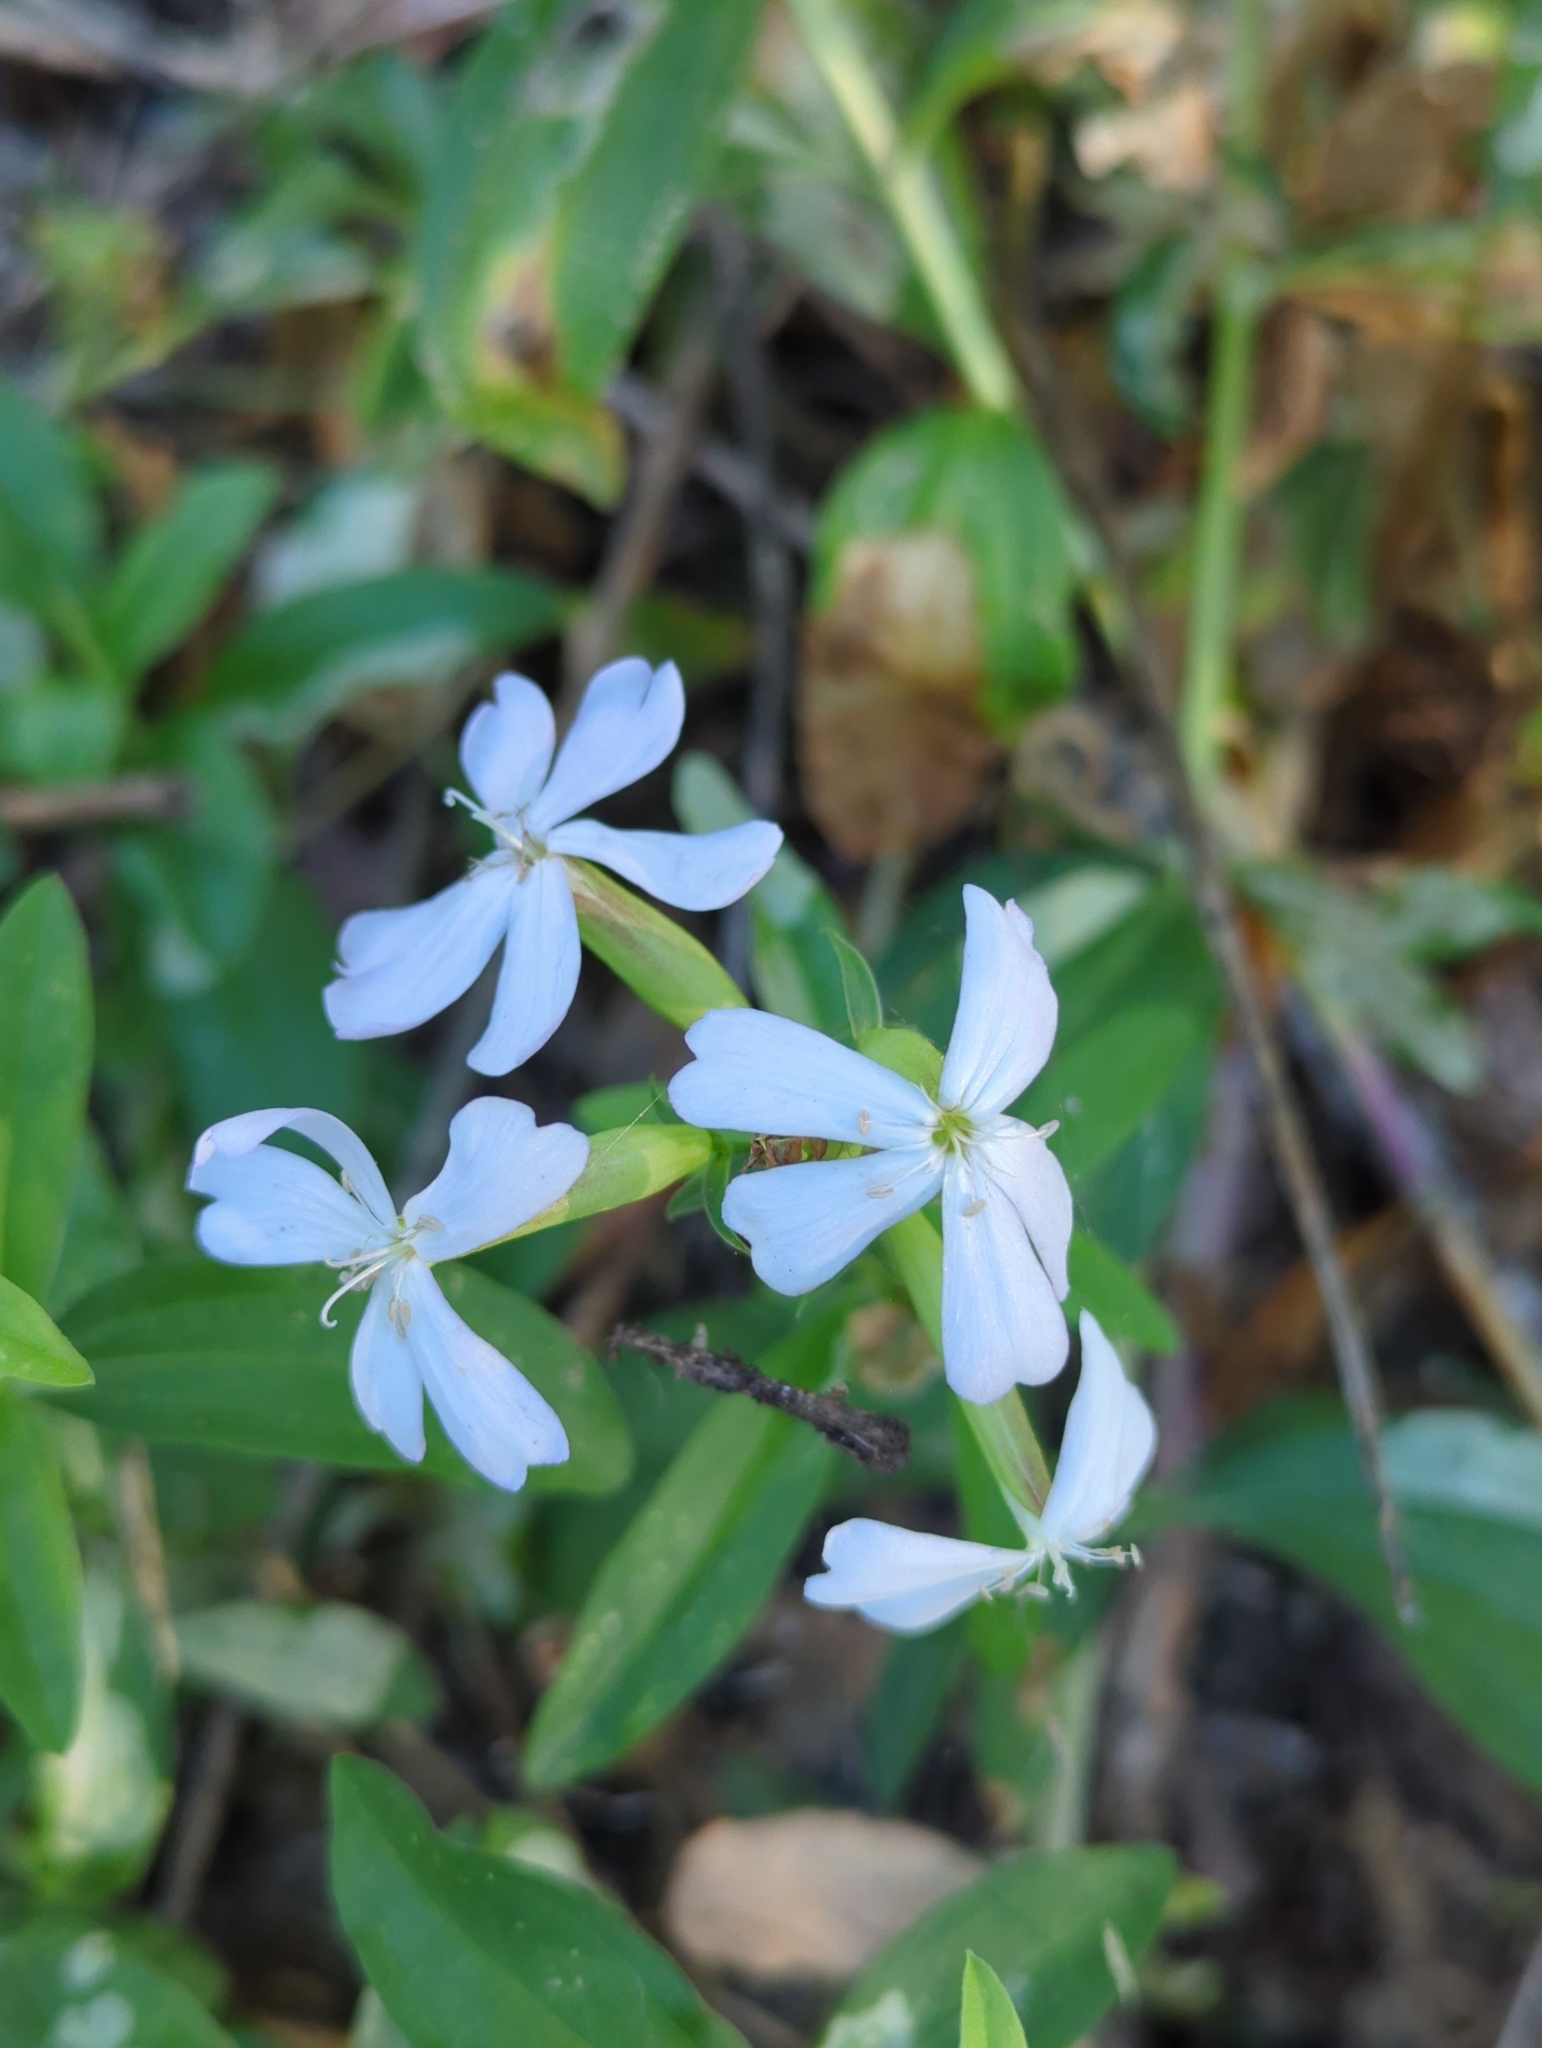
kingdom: Plantae
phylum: Tracheophyta
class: Magnoliopsida
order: Caryophyllales
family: Caryophyllaceae
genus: Saponaria
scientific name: Saponaria officinalis
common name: Soapwort
